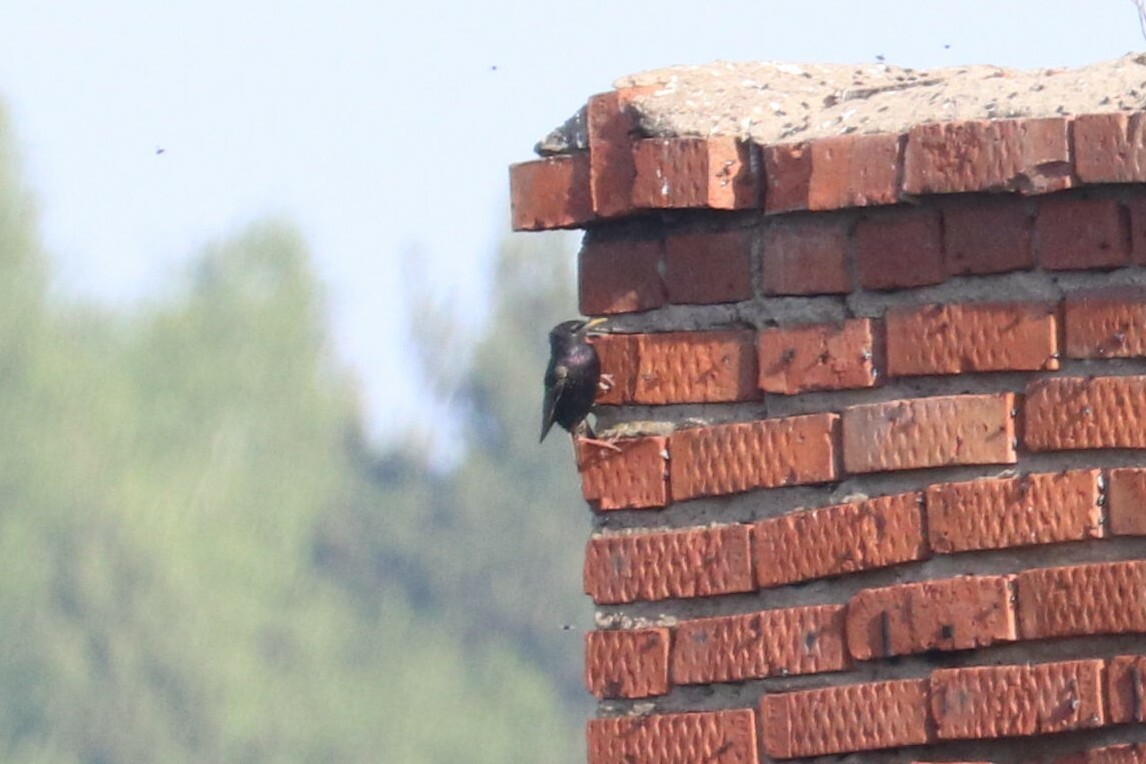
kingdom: Animalia
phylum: Chordata
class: Aves
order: Passeriformes
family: Sturnidae
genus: Sturnus
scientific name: Sturnus vulgaris
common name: Common starling
